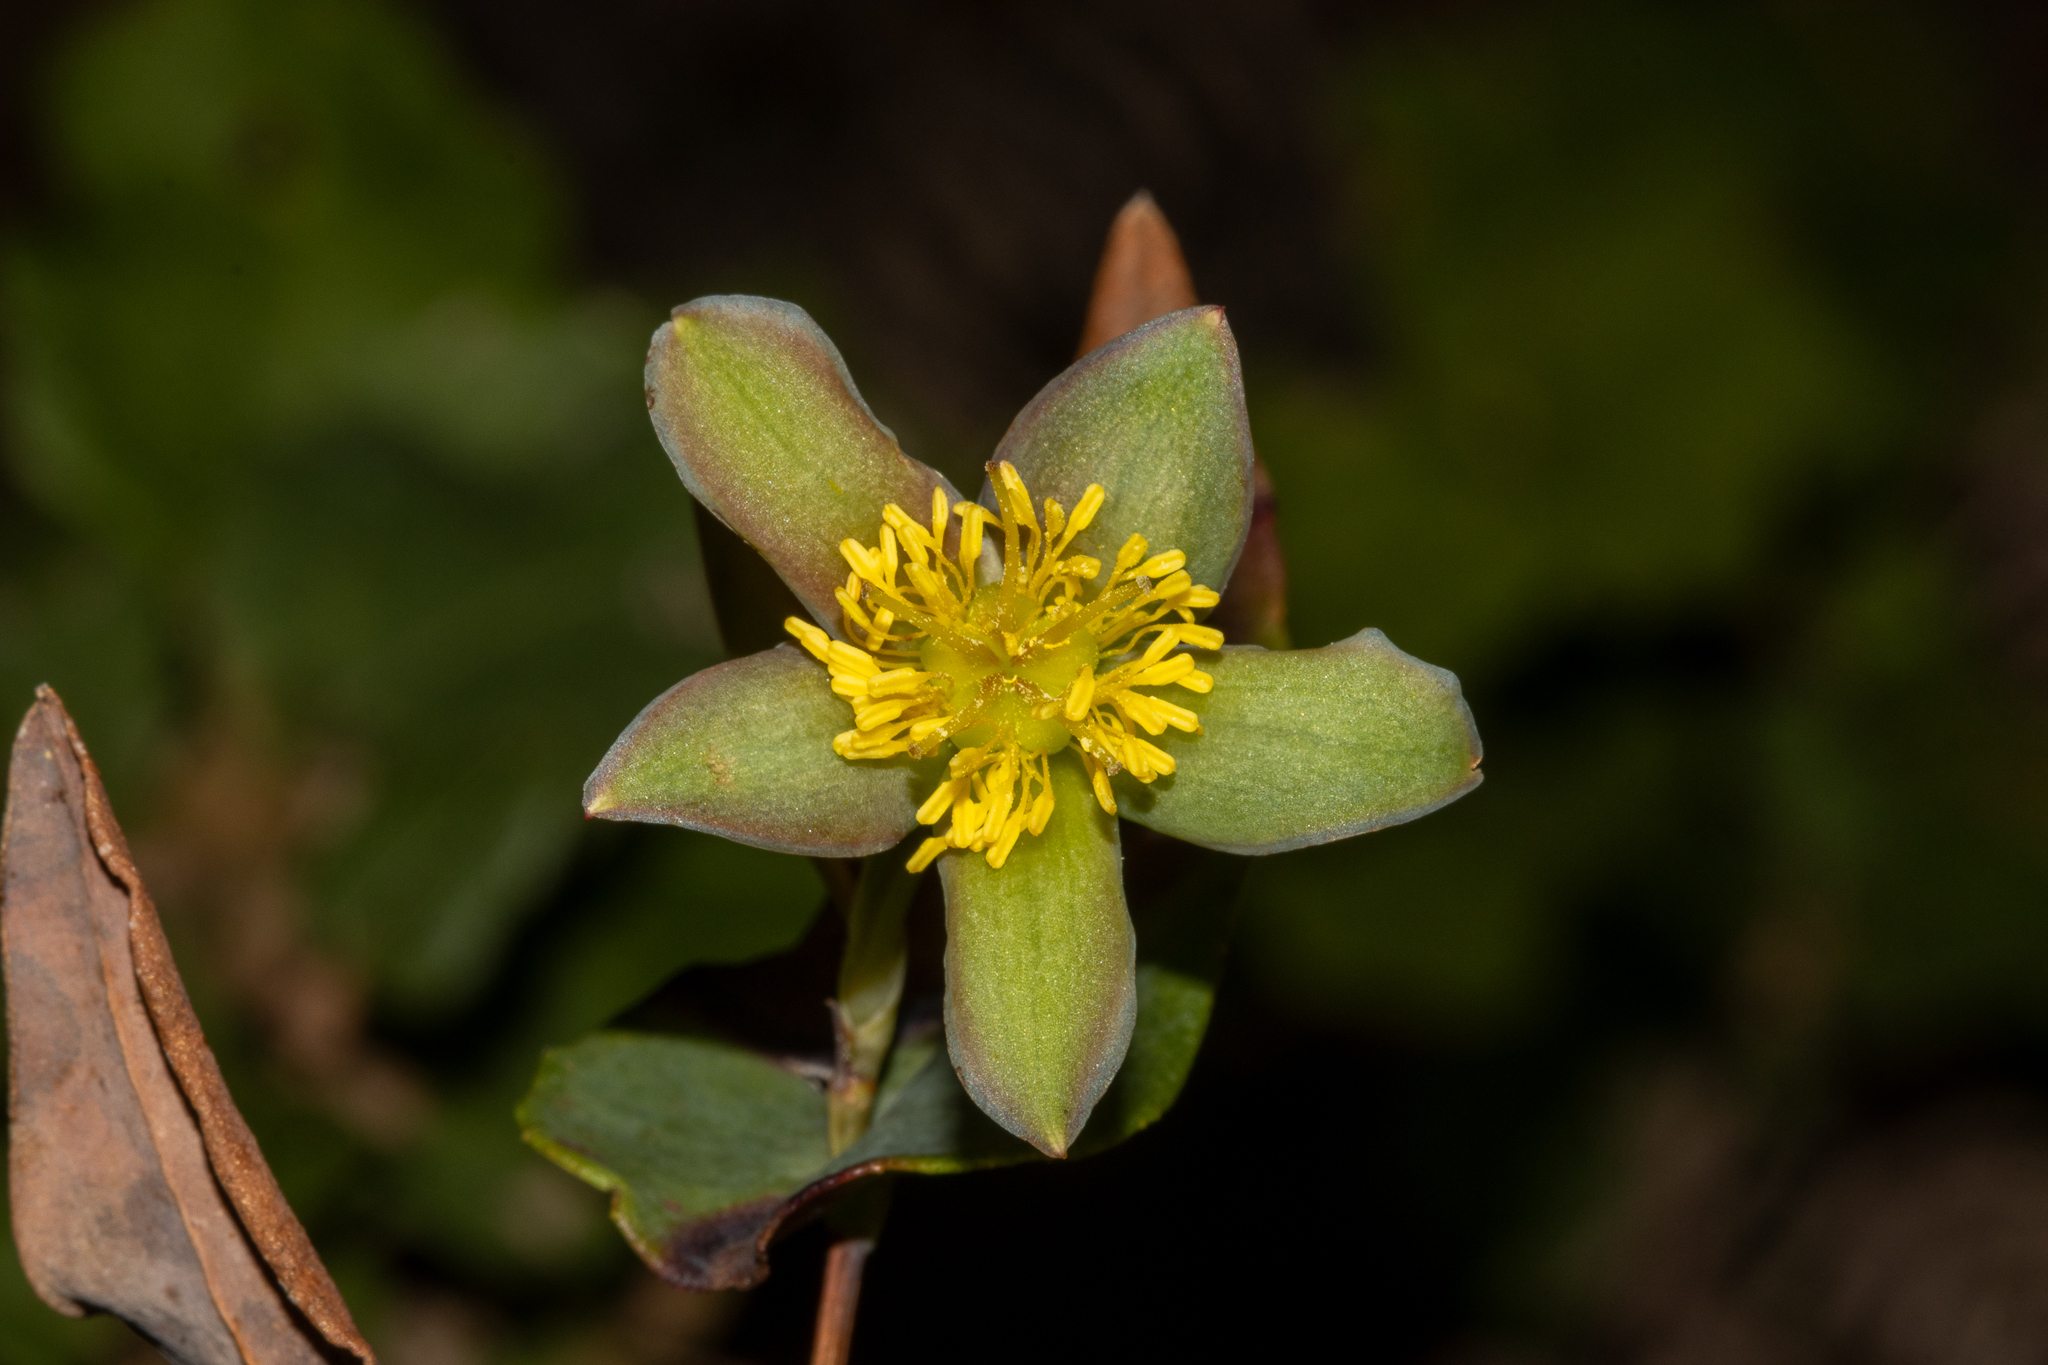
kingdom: Plantae
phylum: Tracheophyta
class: Magnoliopsida
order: Dilleniales
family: Dilleniaceae
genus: Hibbertia
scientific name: Hibbertia cunninghamii
